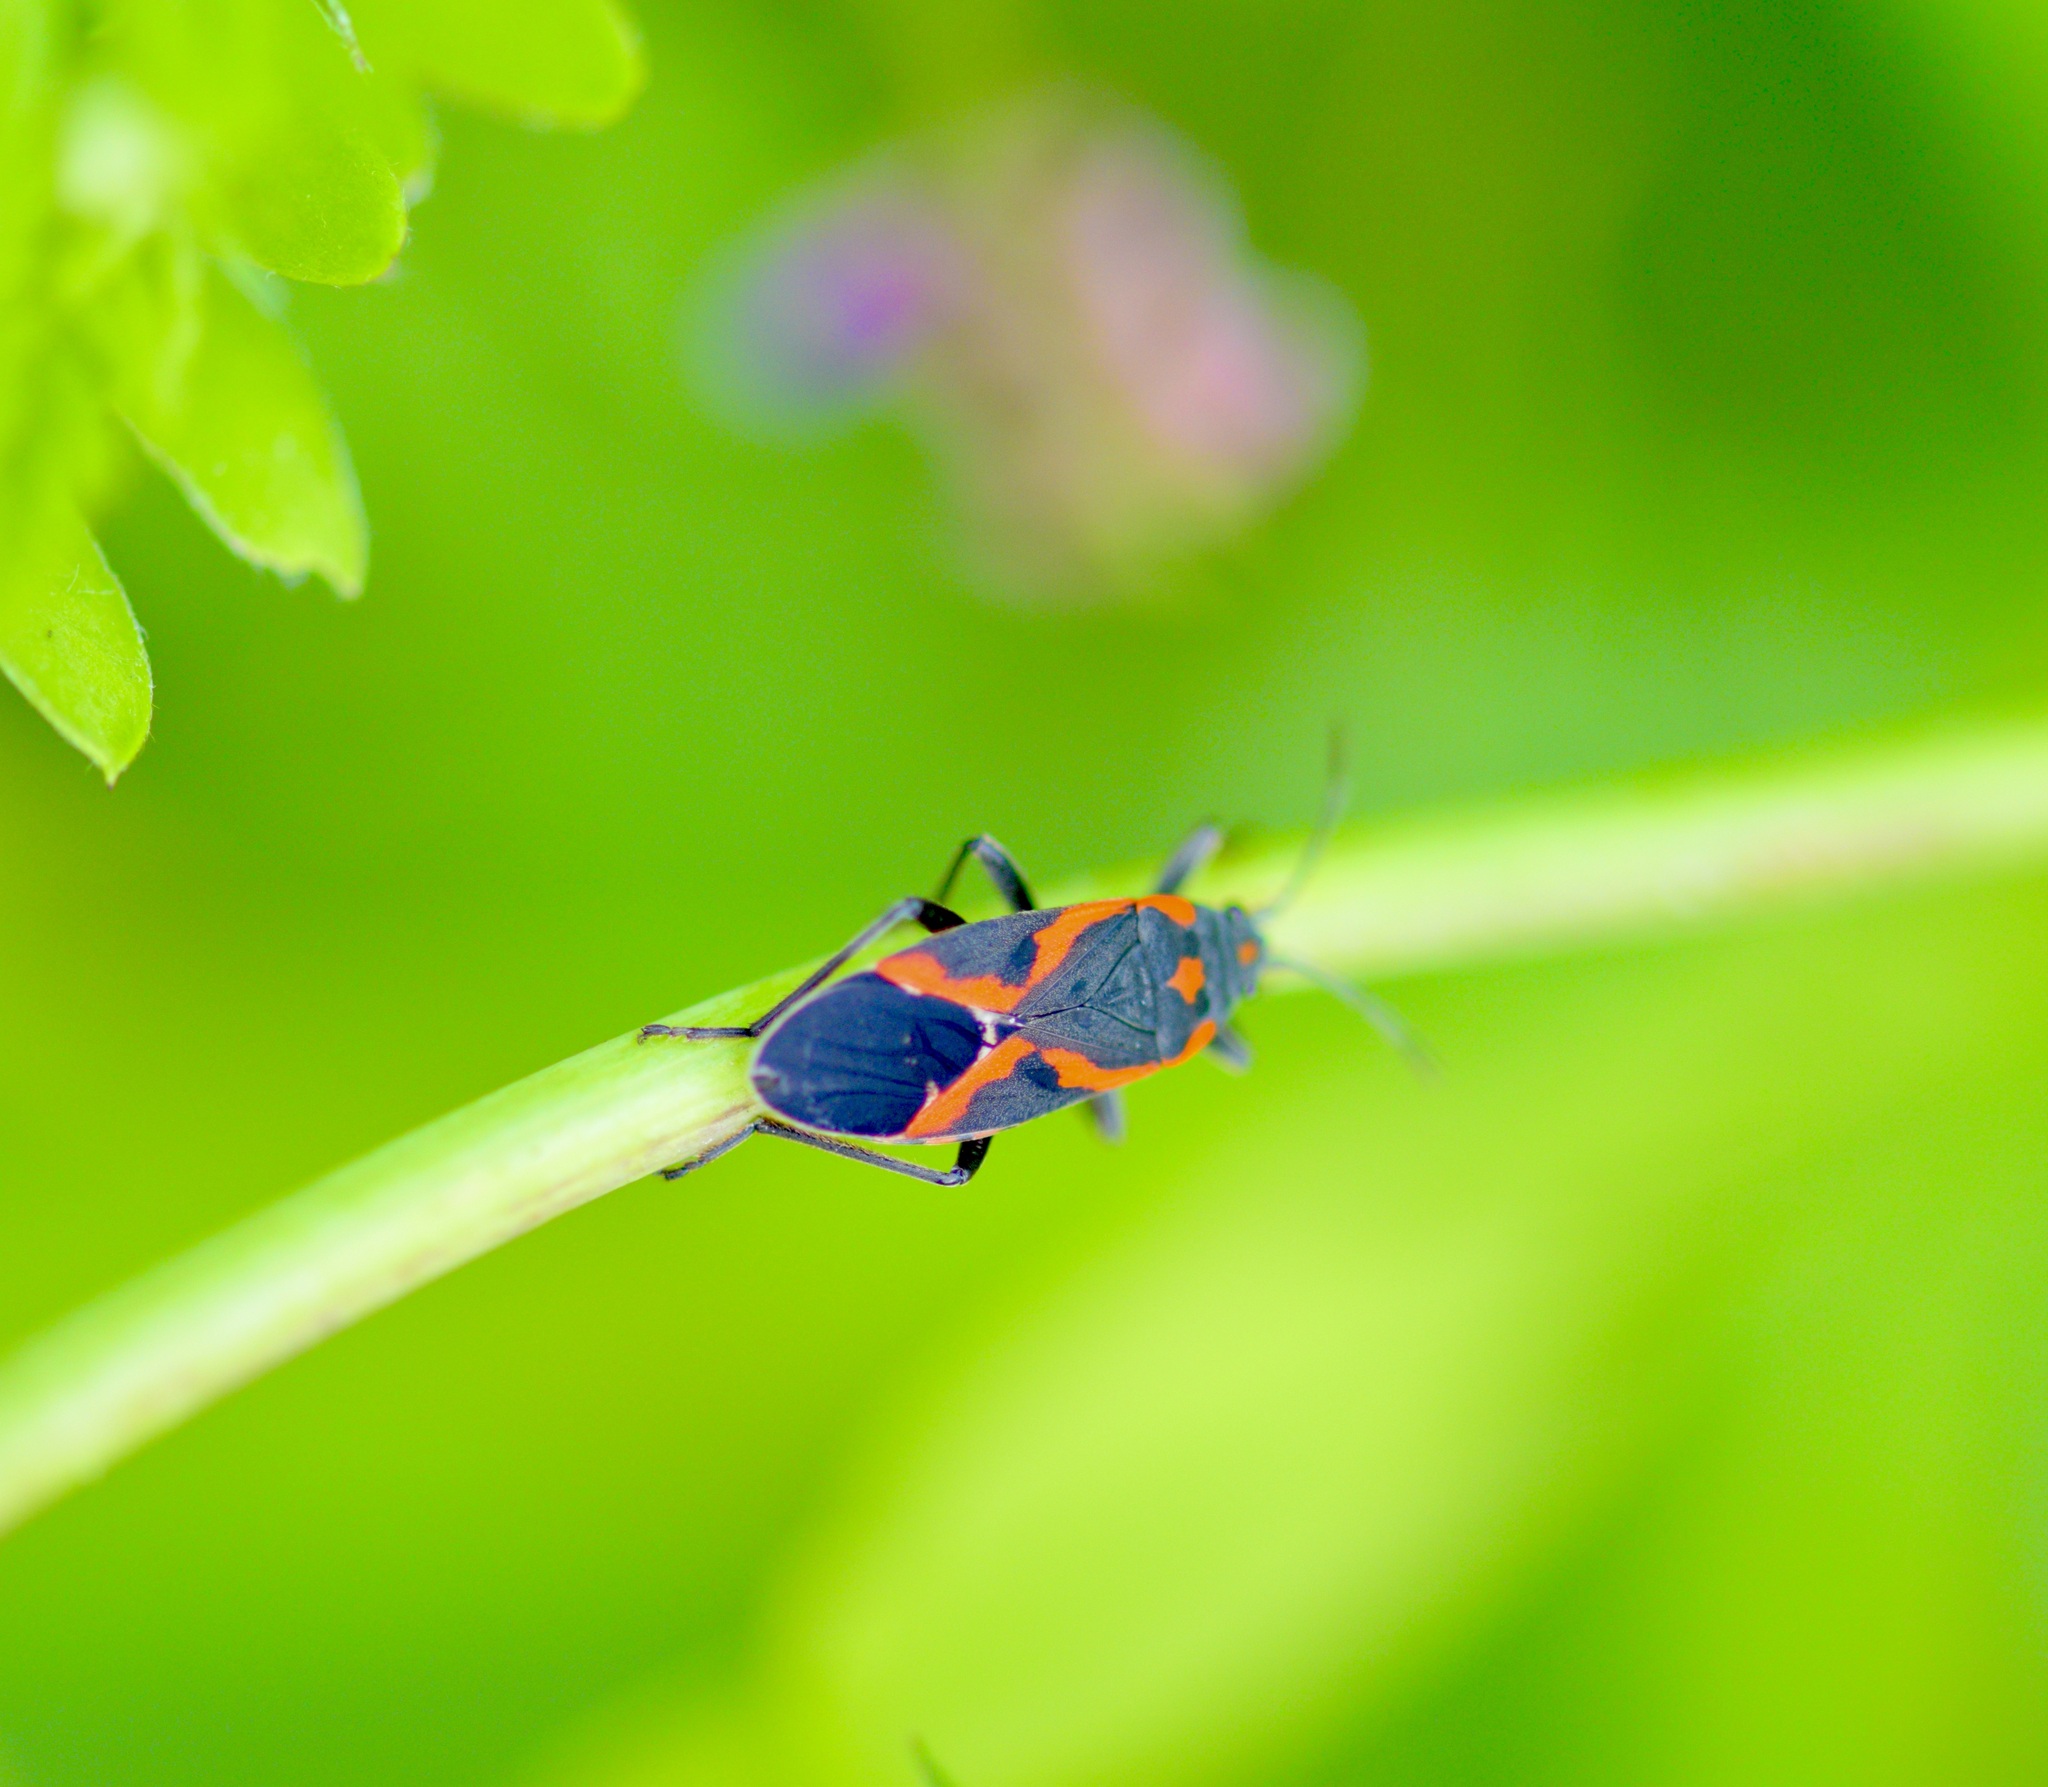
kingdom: Animalia
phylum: Arthropoda
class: Insecta
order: Hemiptera
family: Lygaeidae
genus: Lygaeus
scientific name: Lygaeus kalmii
